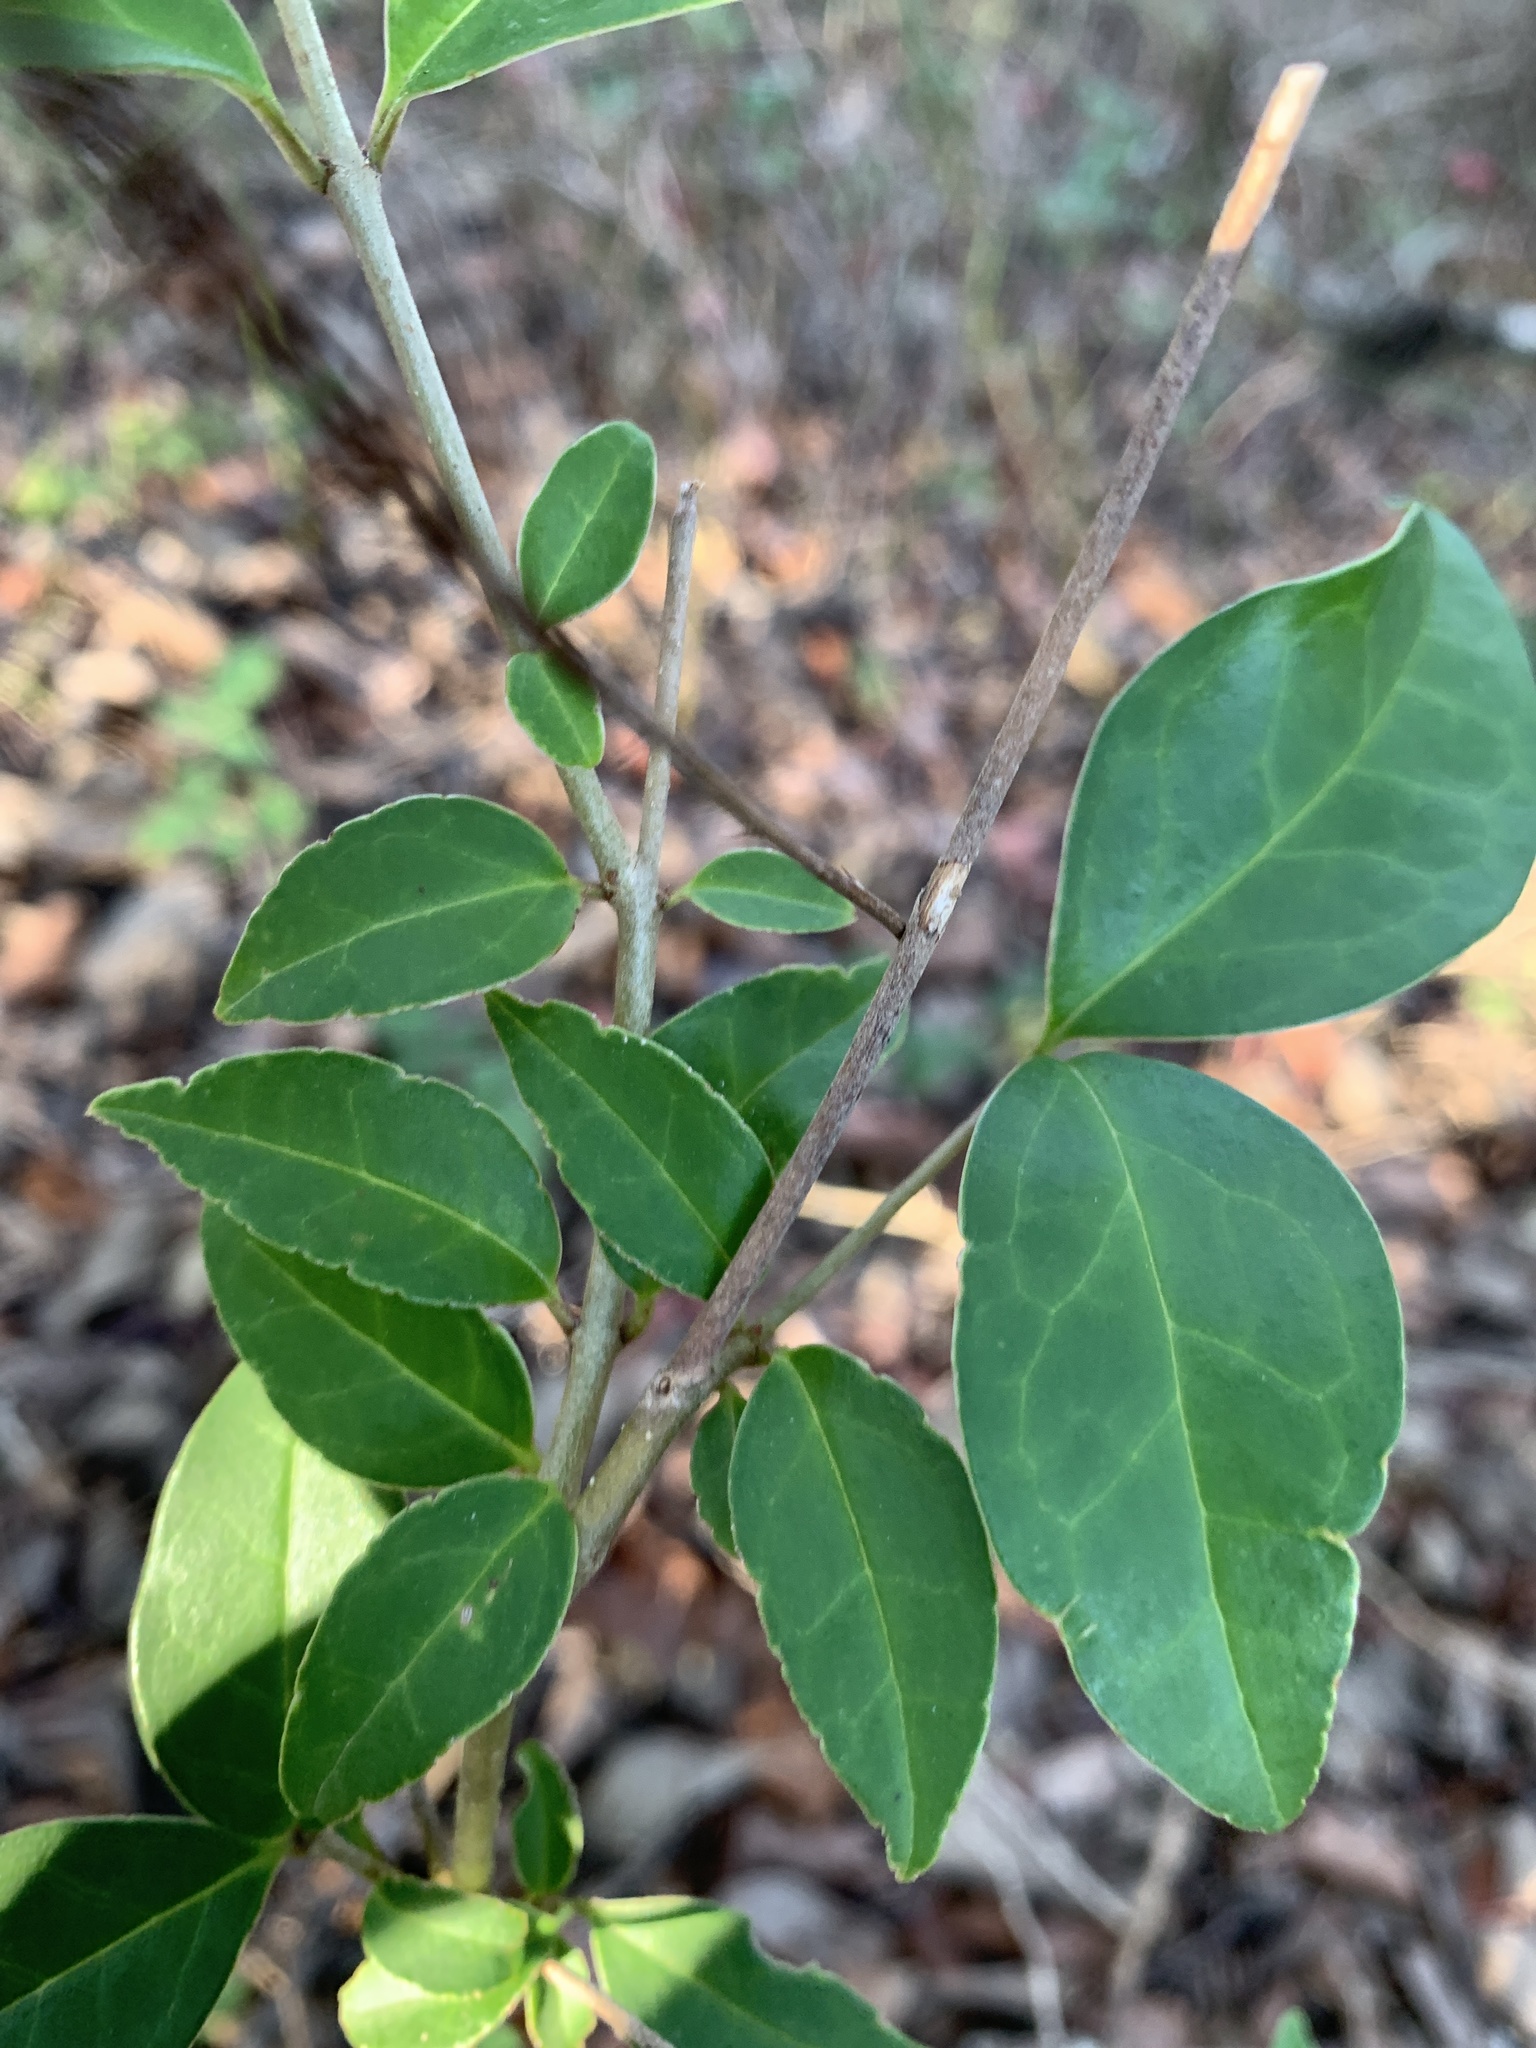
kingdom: Plantae
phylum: Tracheophyta
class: Magnoliopsida
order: Lamiales
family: Oleaceae
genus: Ligustrum
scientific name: Ligustrum lucidum
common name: Glossy privet
